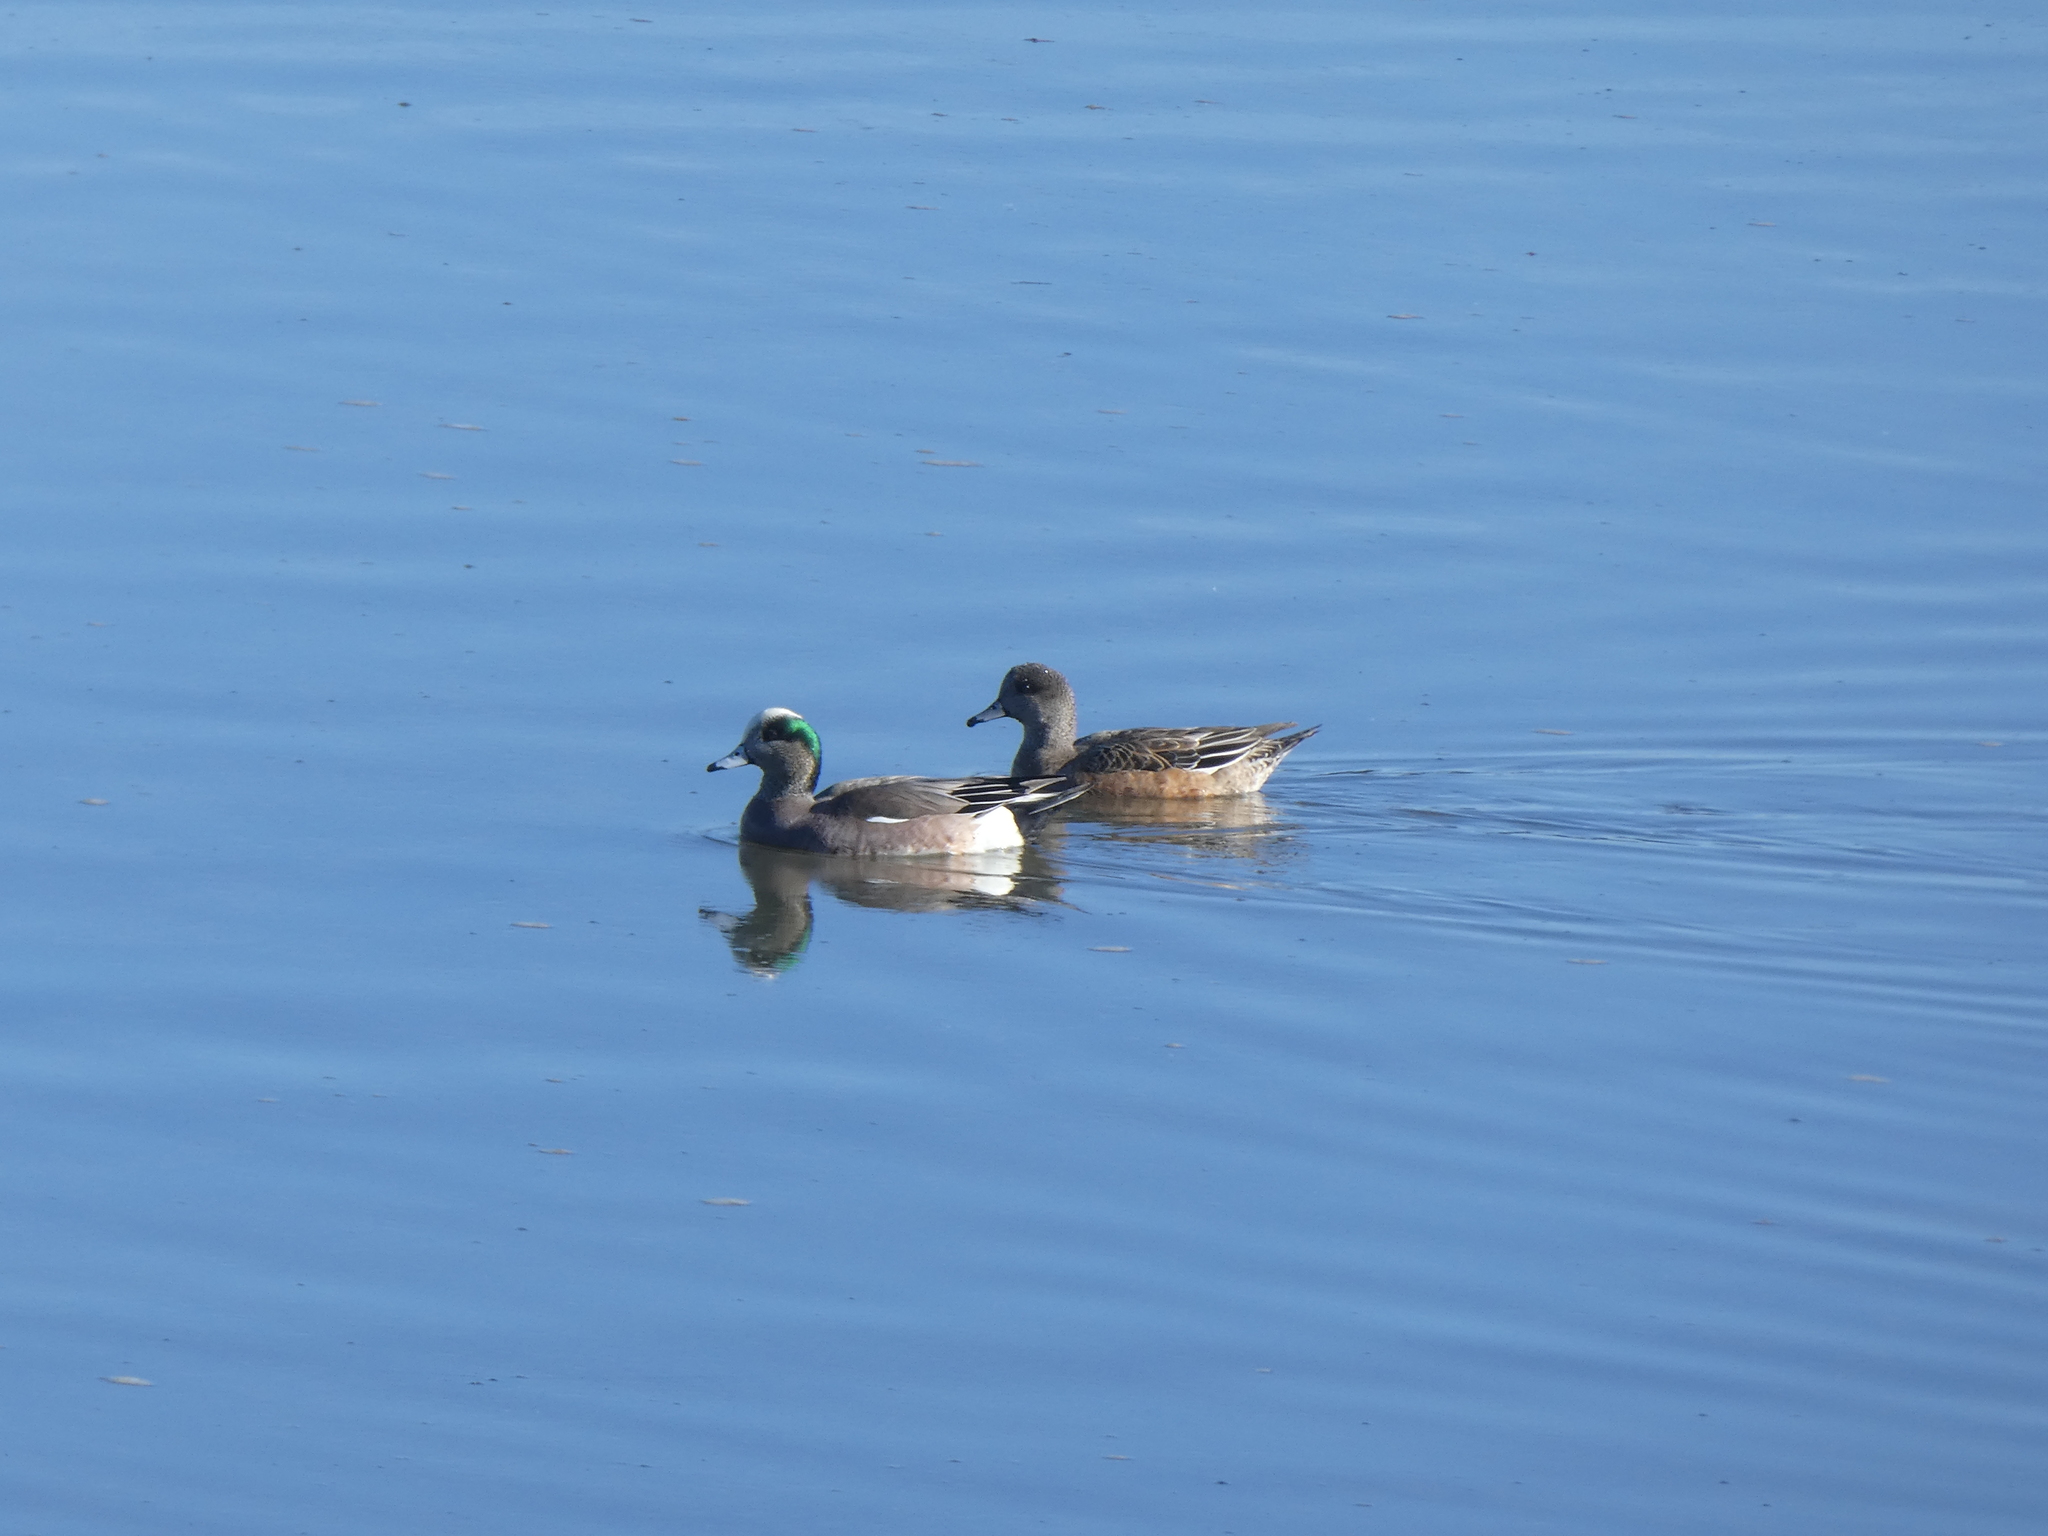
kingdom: Animalia
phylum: Chordata
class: Aves
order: Anseriformes
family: Anatidae
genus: Mareca
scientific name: Mareca americana
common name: American wigeon
